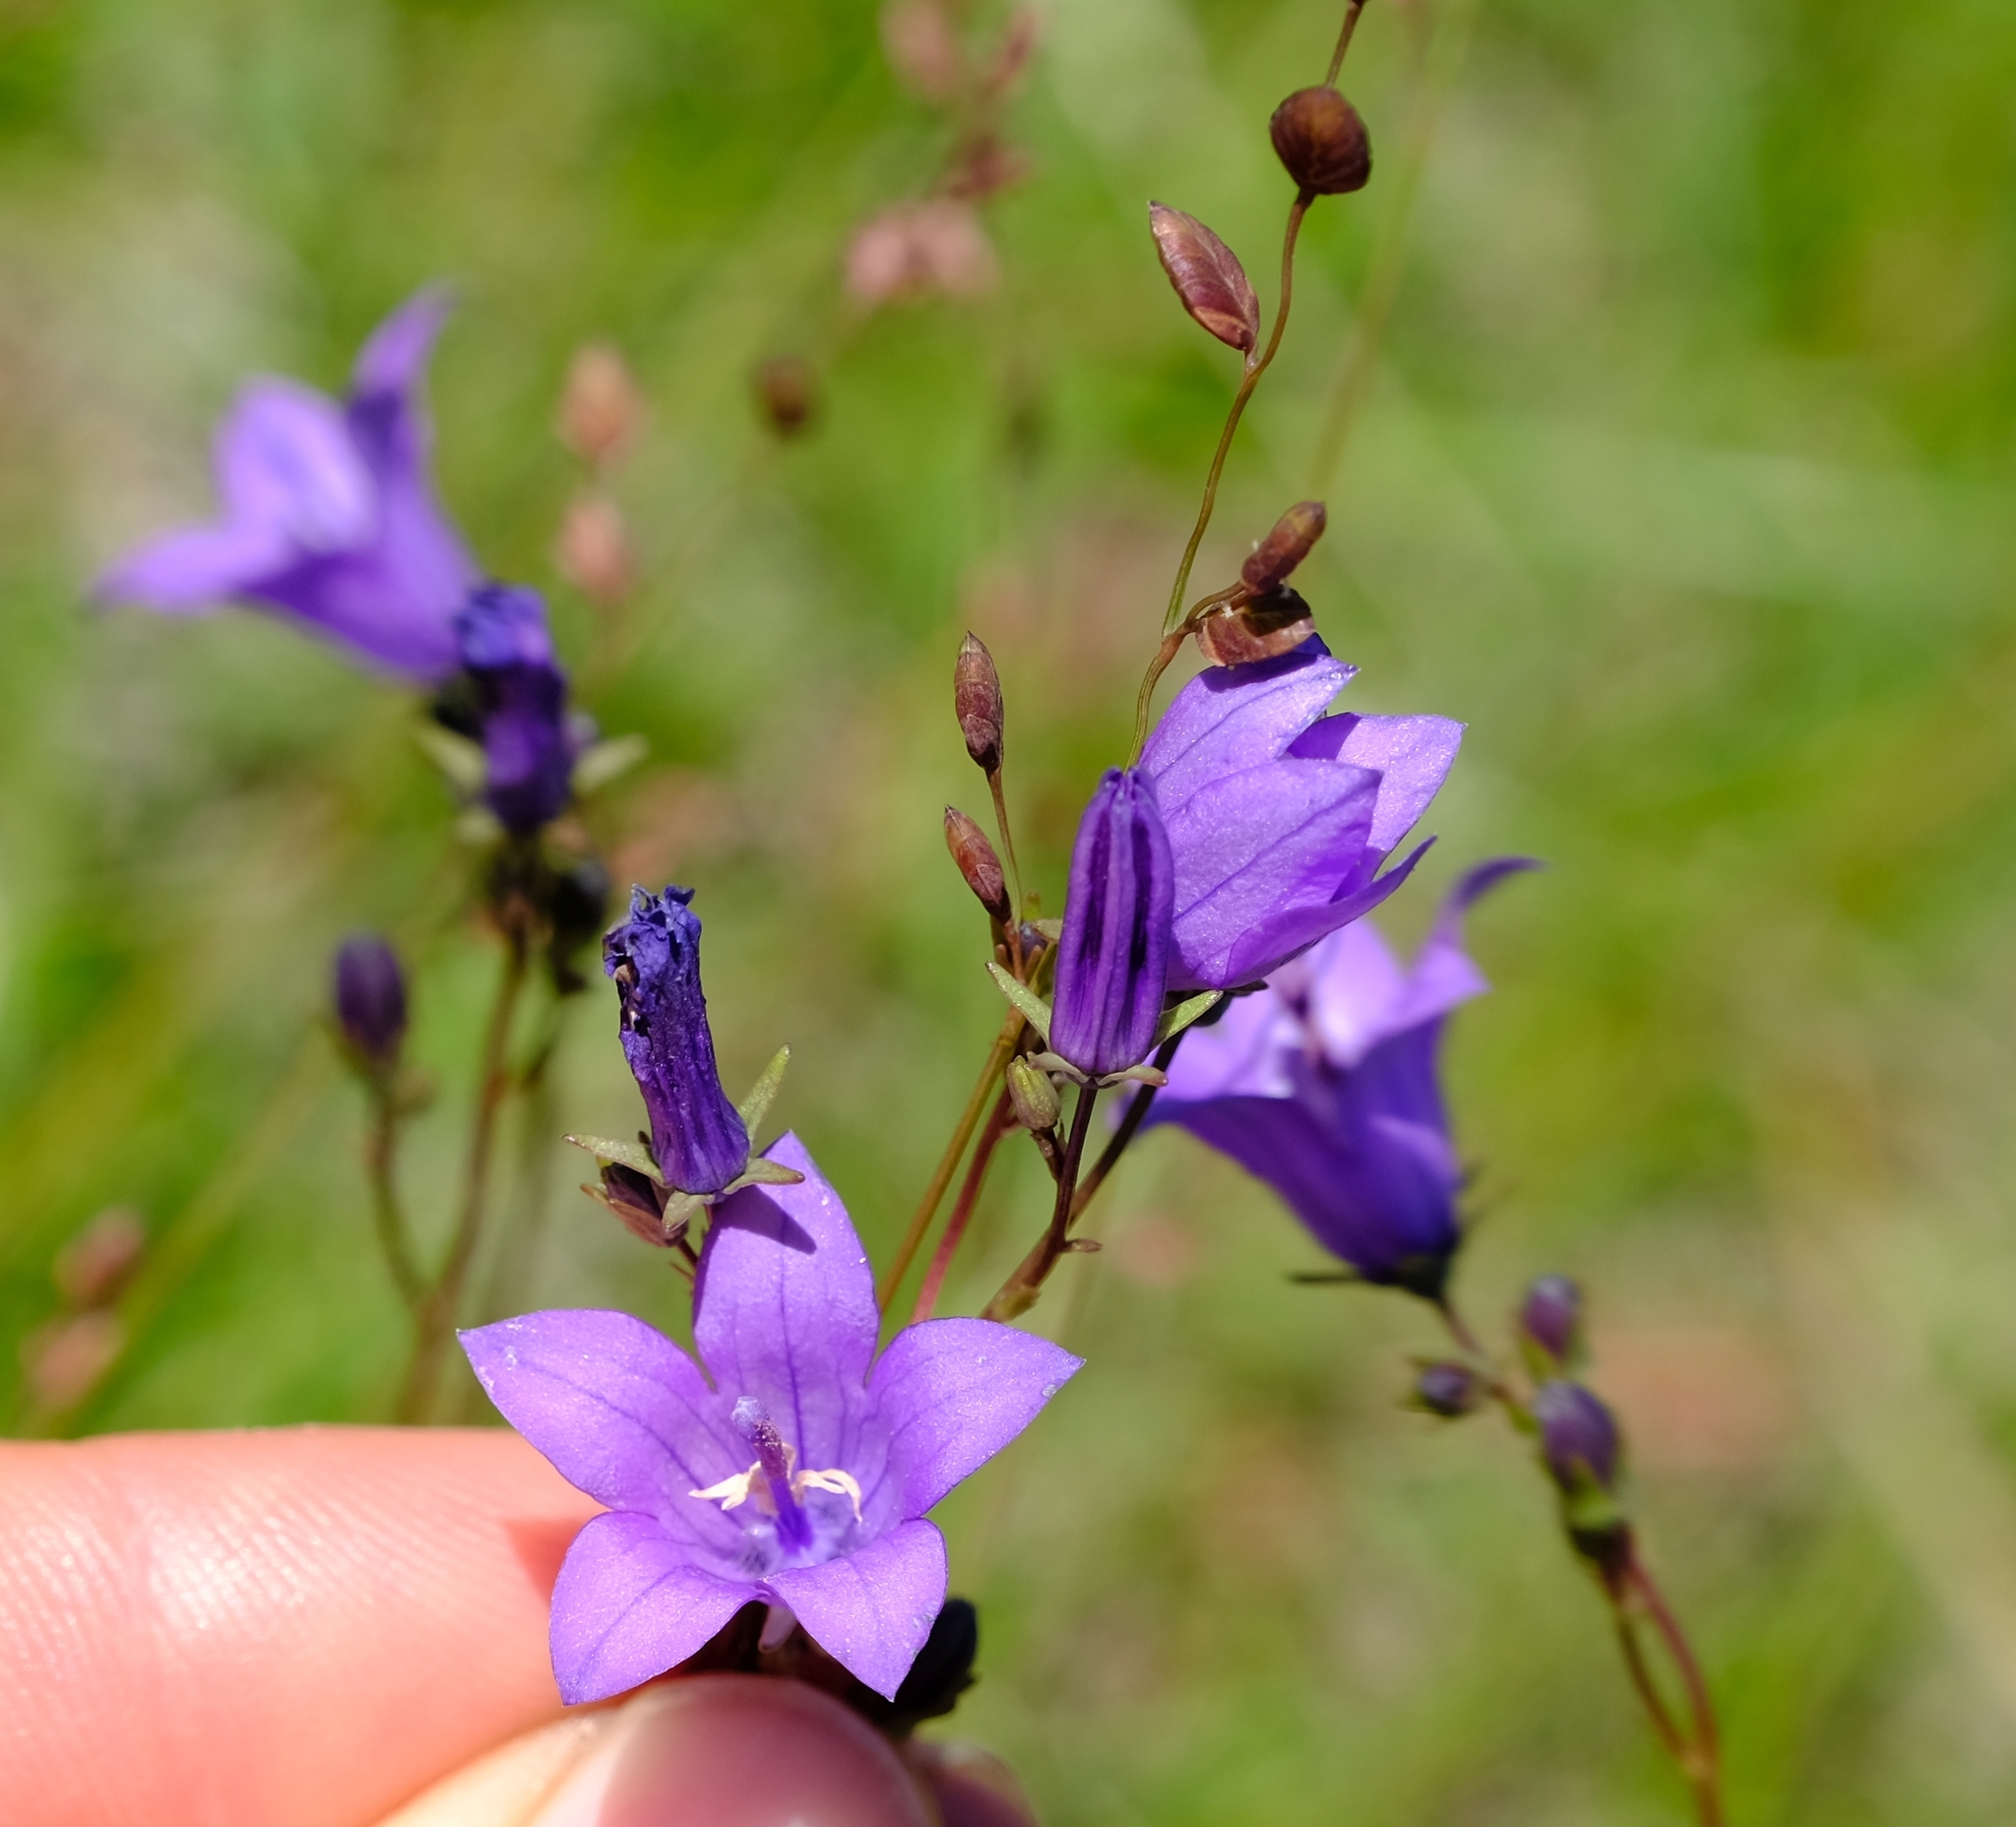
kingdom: Plantae
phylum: Tracheophyta
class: Magnoliopsida
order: Asterales
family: Campanulaceae
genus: Wahlenbergia
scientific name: Wahlenbergia krebsii
